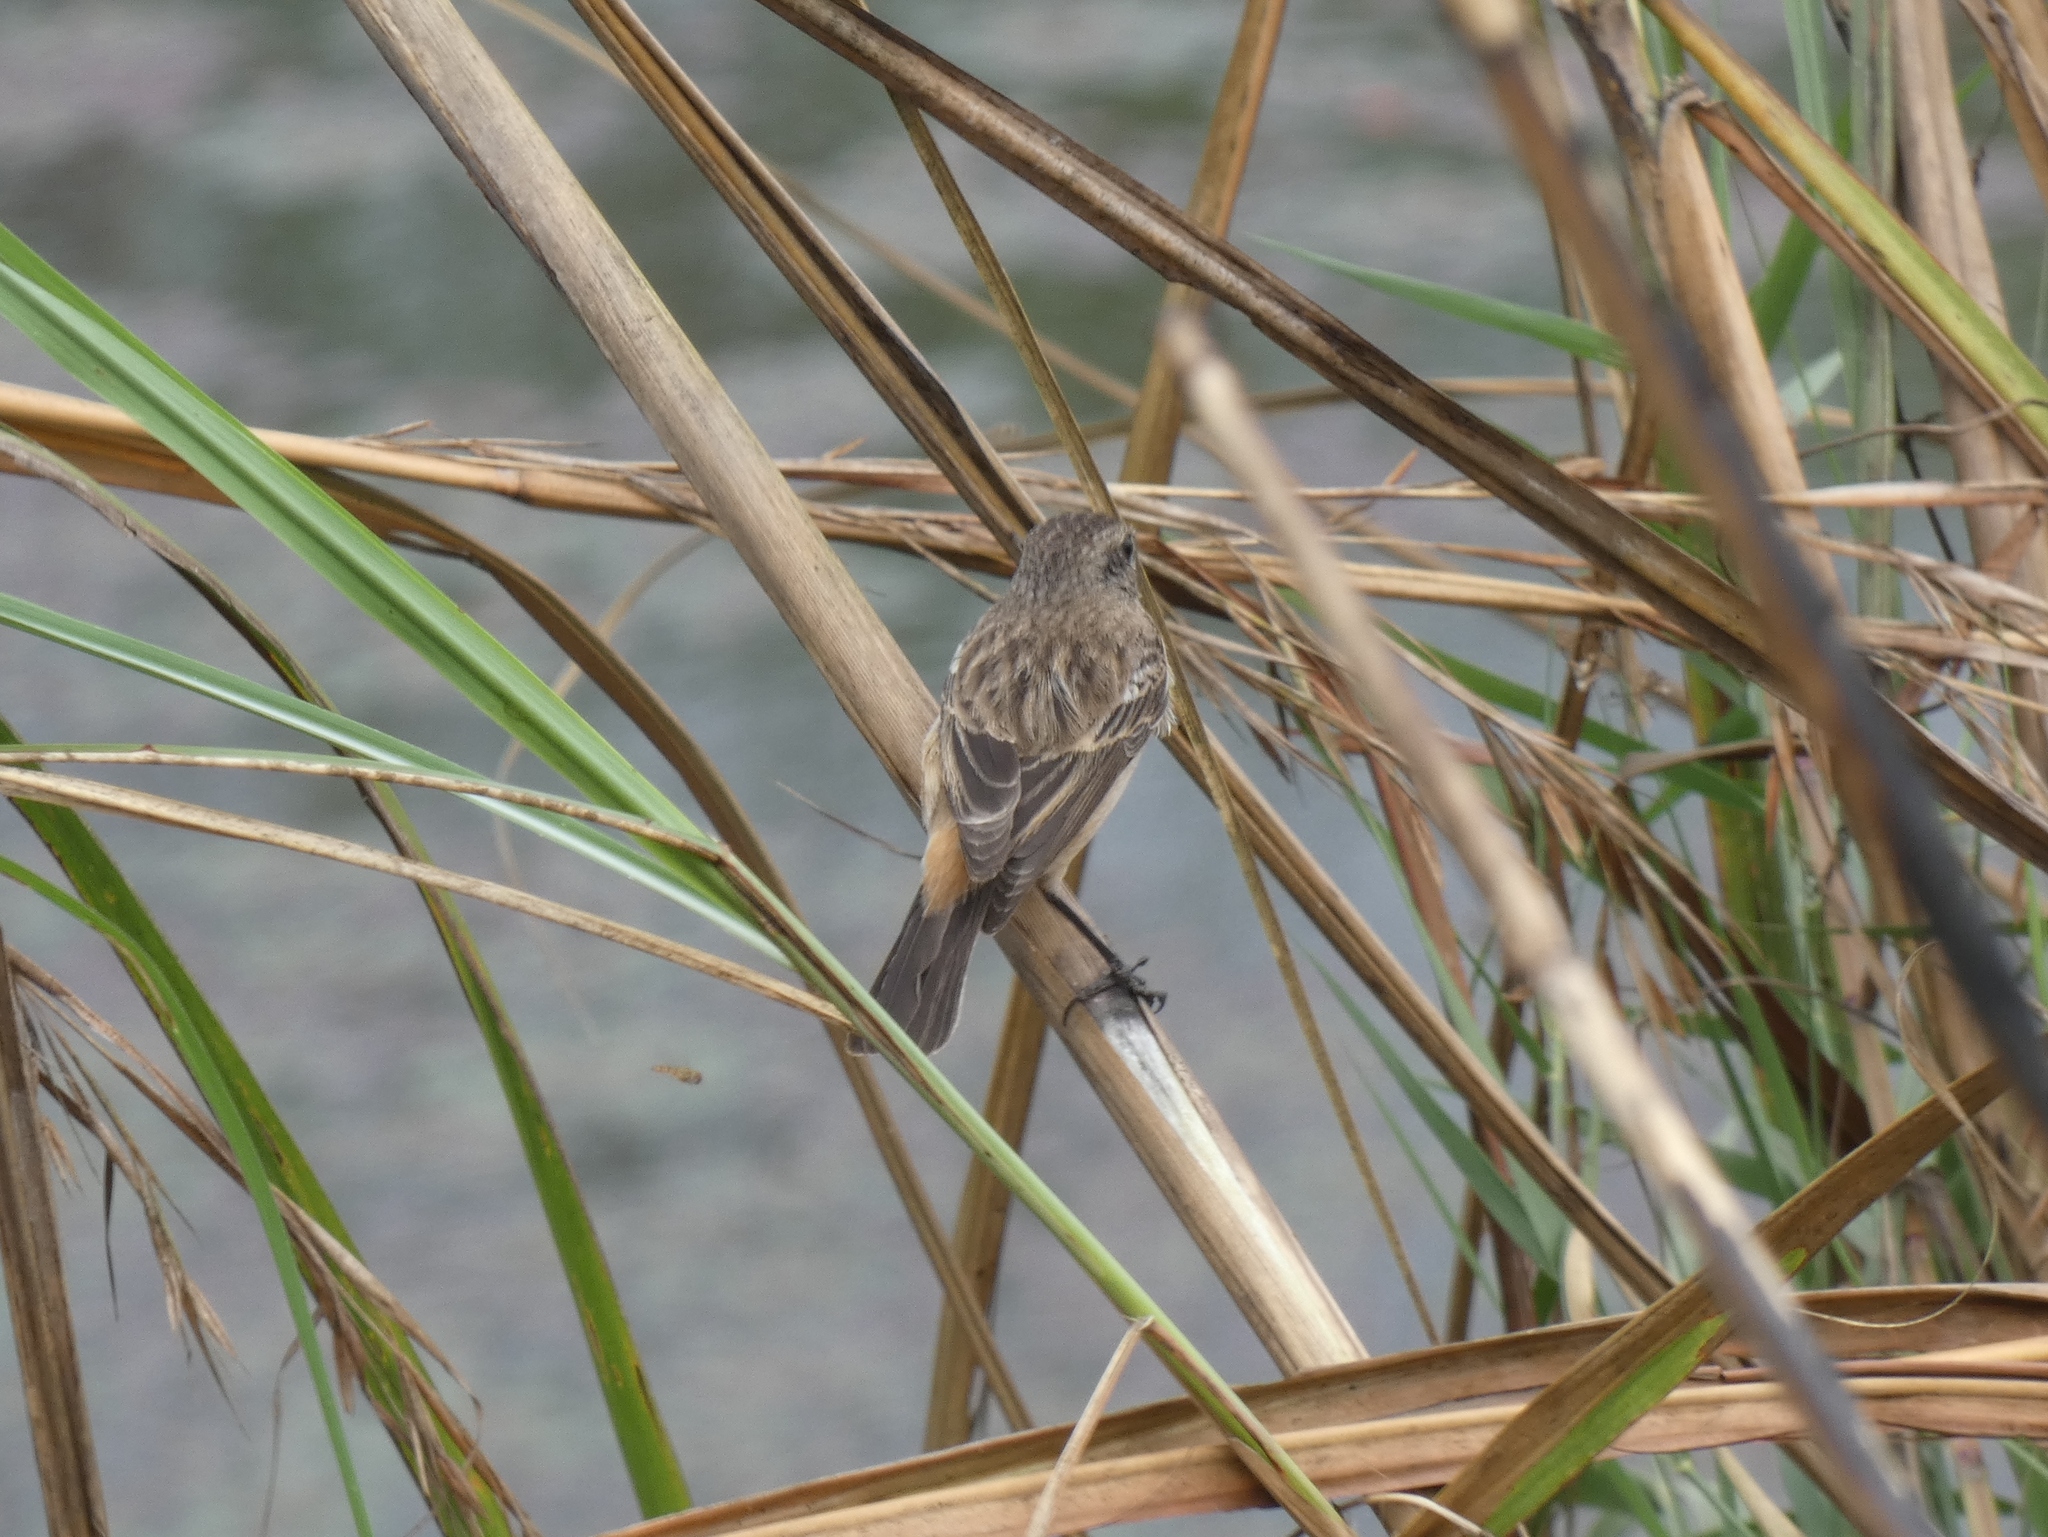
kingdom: Animalia
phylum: Chordata
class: Aves
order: Passeriformes
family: Muscicapidae
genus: Saxicola
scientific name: Saxicola maurus
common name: Siberian stonechat
